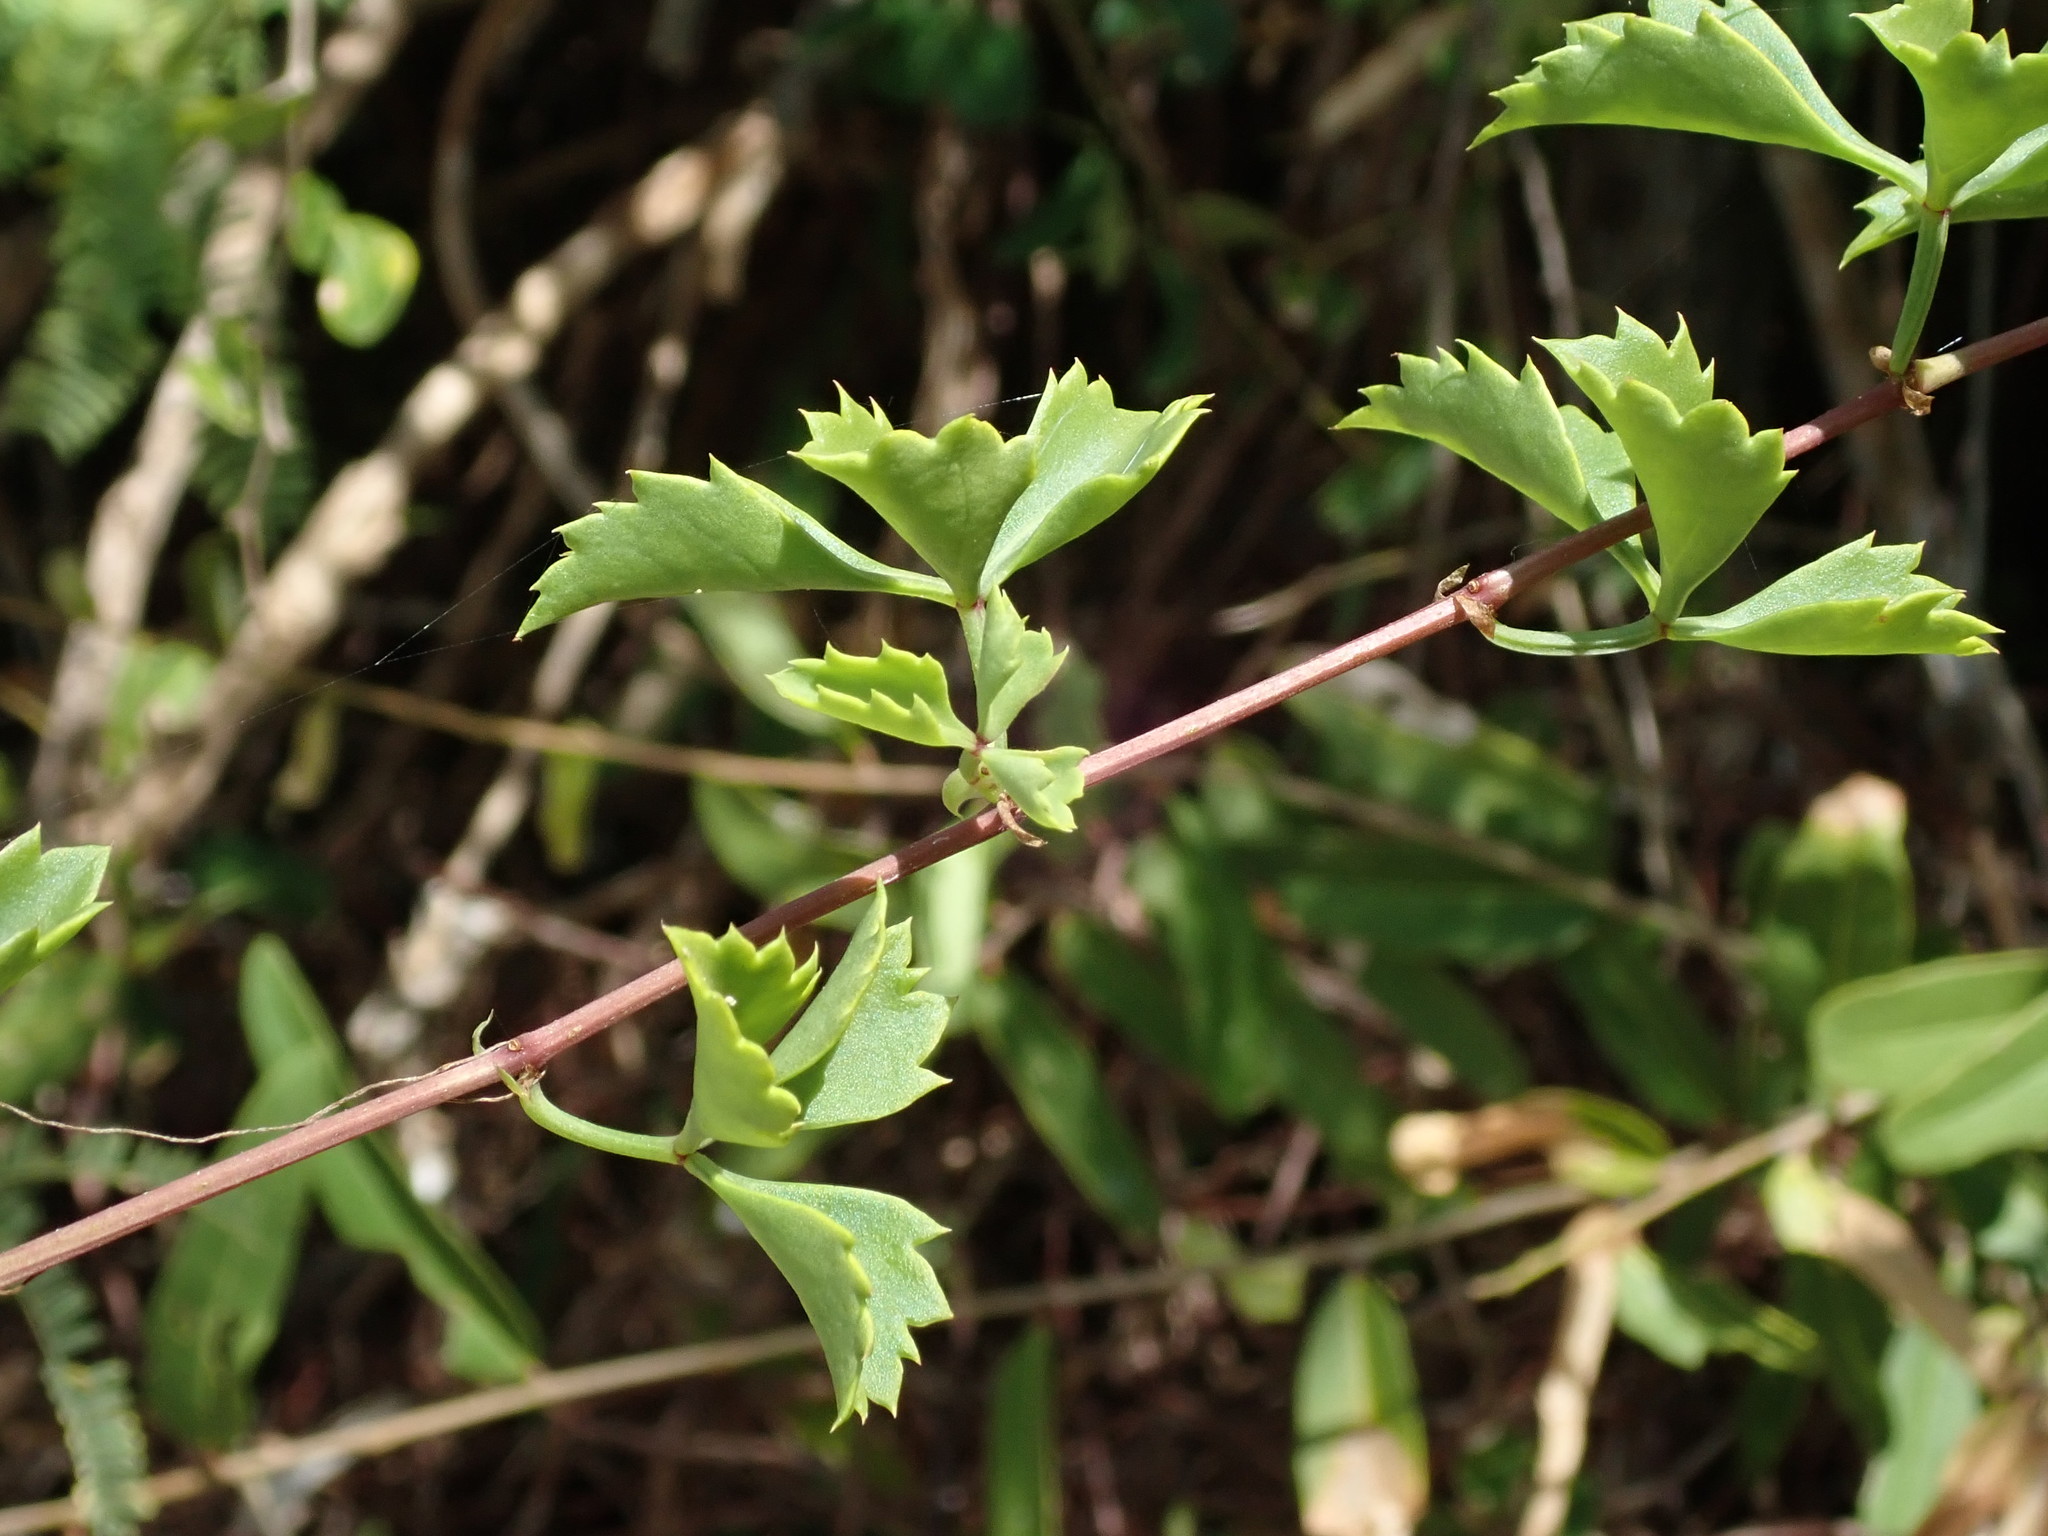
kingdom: Plantae
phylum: Tracheophyta
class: Magnoliopsida
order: Vitales
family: Vitaceae
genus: Cissus
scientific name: Cissus trifoliata
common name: Vine-sorrel
